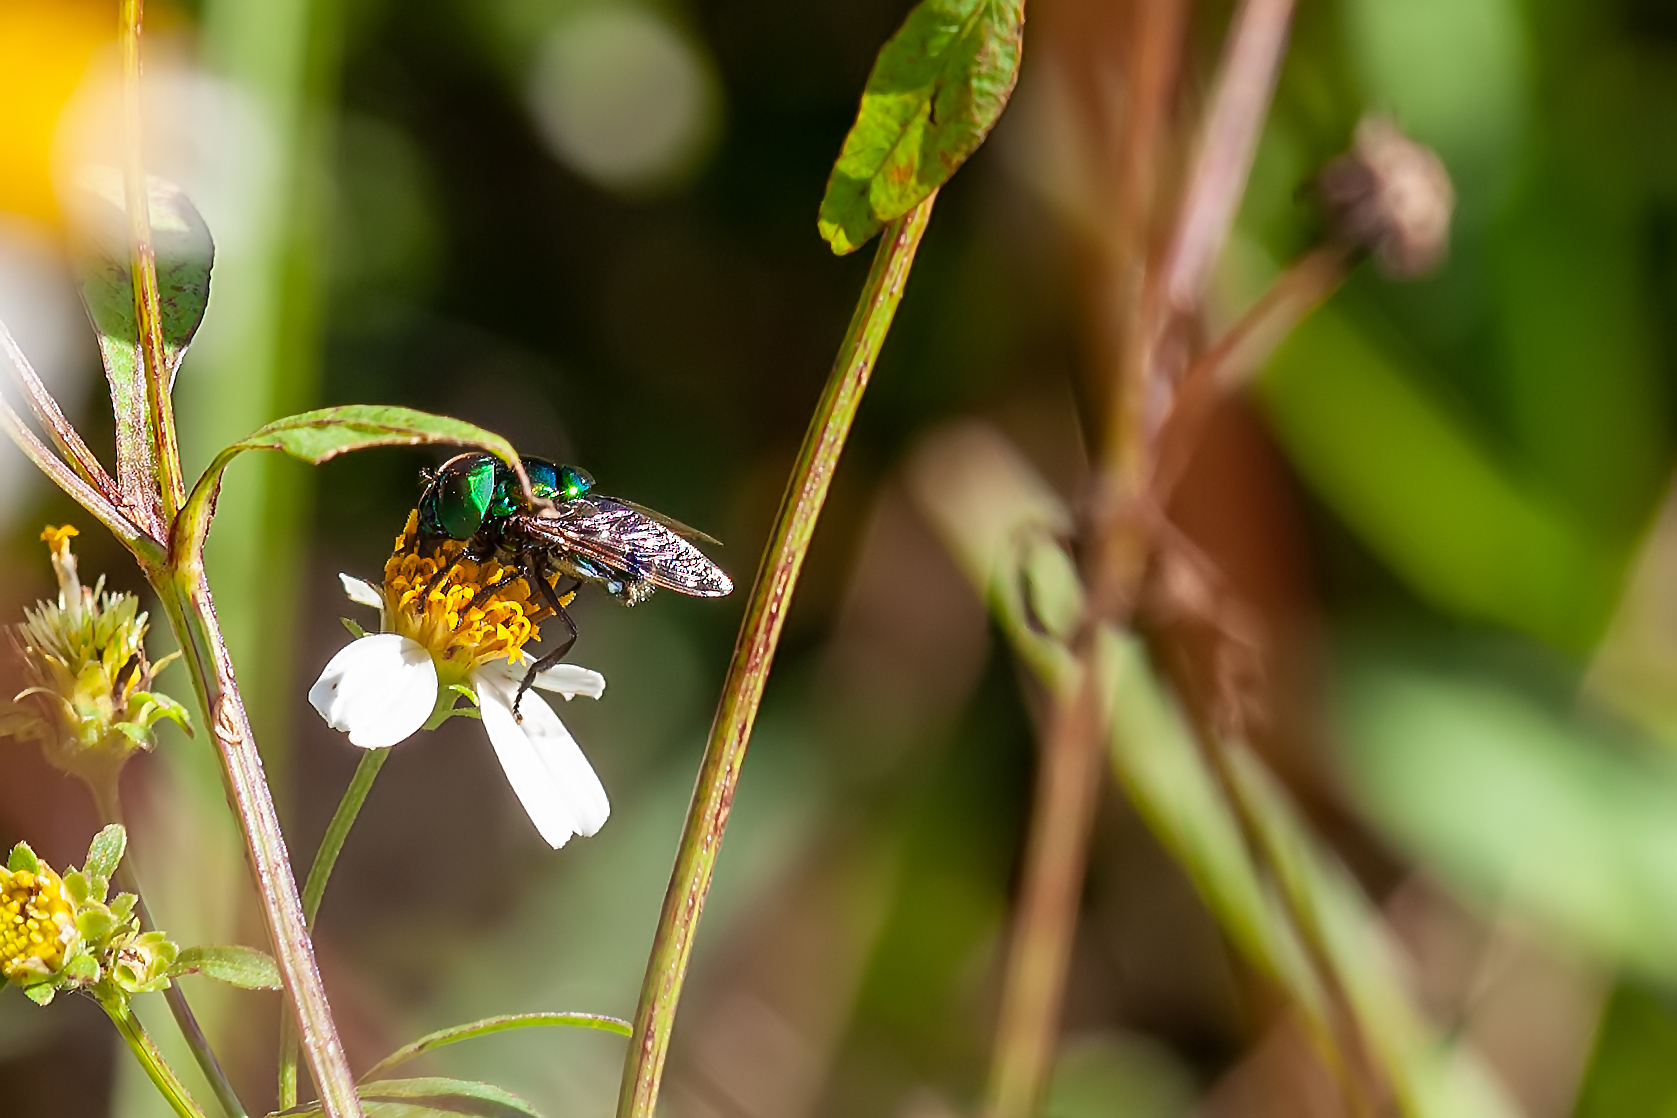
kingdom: Animalia
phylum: Arthropoda
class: Insecta
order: Diptera
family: Syrphidae
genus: Ornidia
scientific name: Ornidia obesa
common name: Syrphid fly
